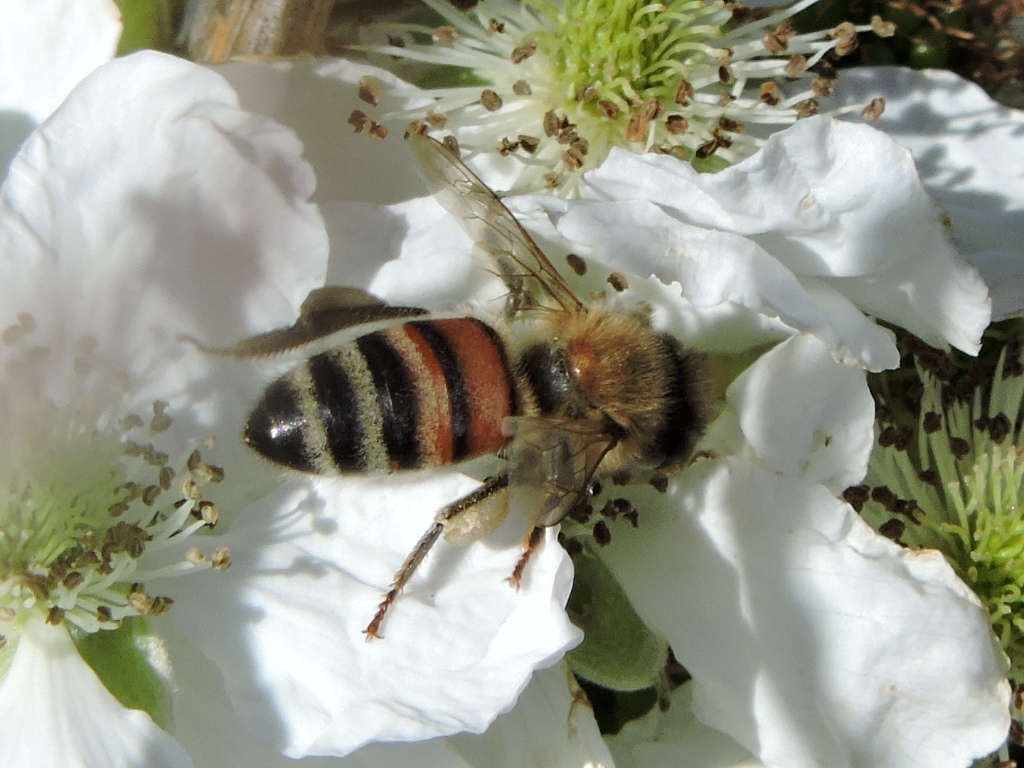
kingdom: Animalia
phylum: Arthropoda
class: Insecta
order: Hymenoptera
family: Apidae
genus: Apis
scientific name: Apis mellifera
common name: Honey bee
